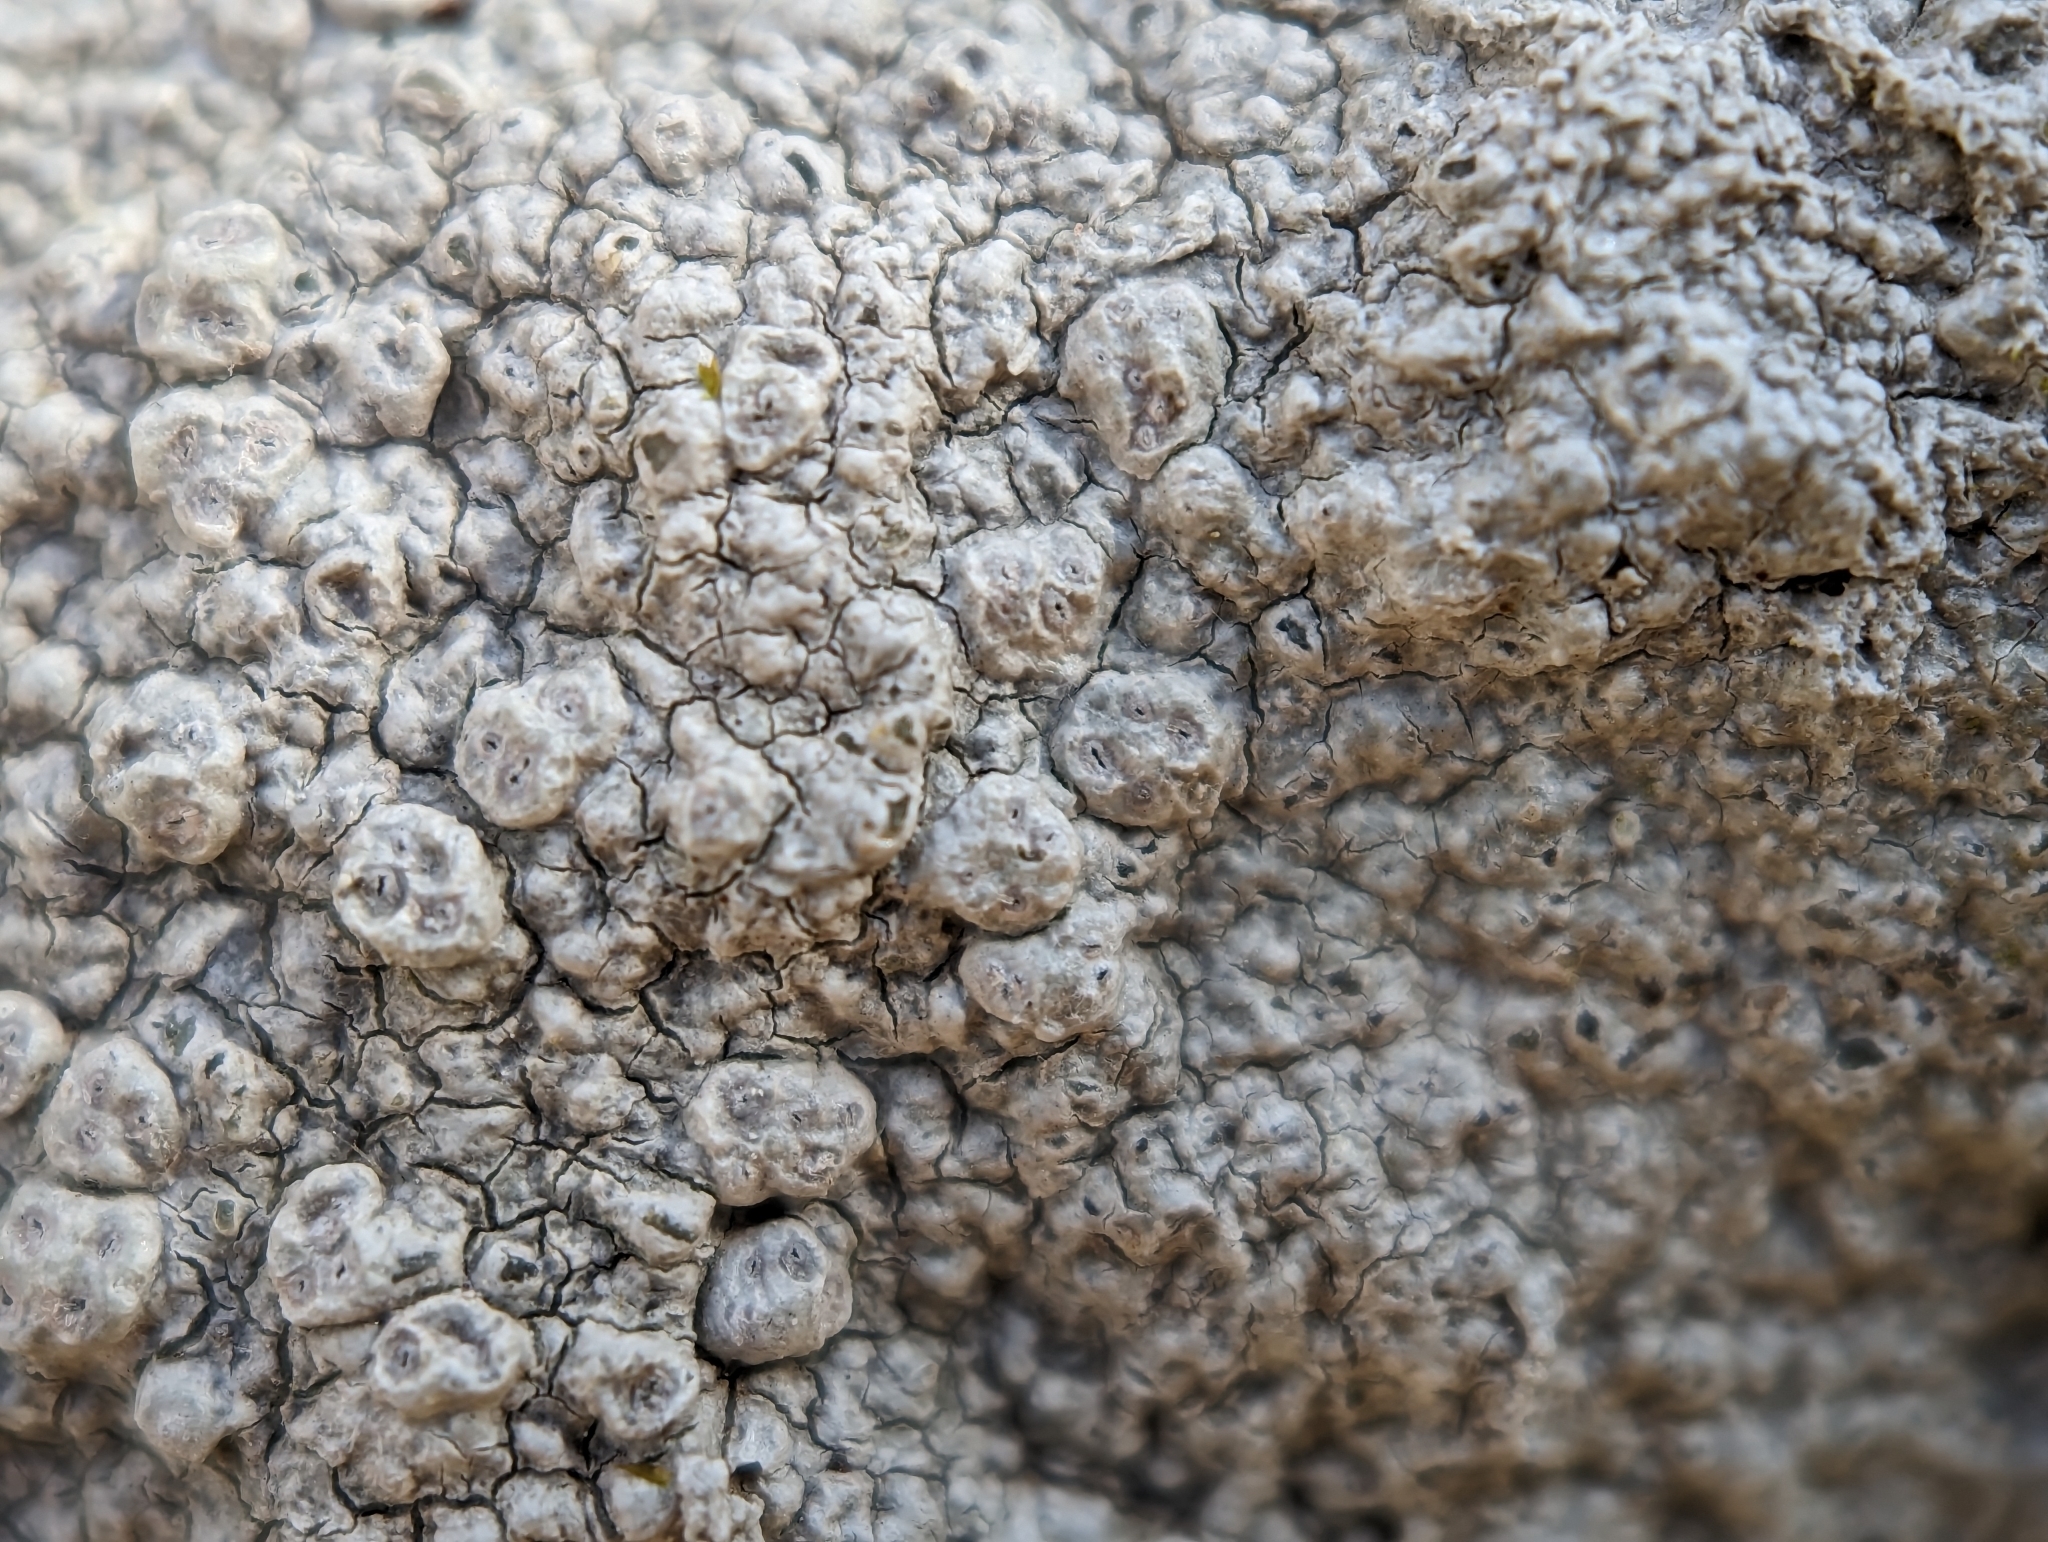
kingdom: Fungi
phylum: Ascomycota
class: Lecanoromycetes
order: Pertusariales
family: Pertusariaceae
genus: Pertusaria
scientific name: Pertusaria plittiana
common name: Rock wart lichen
